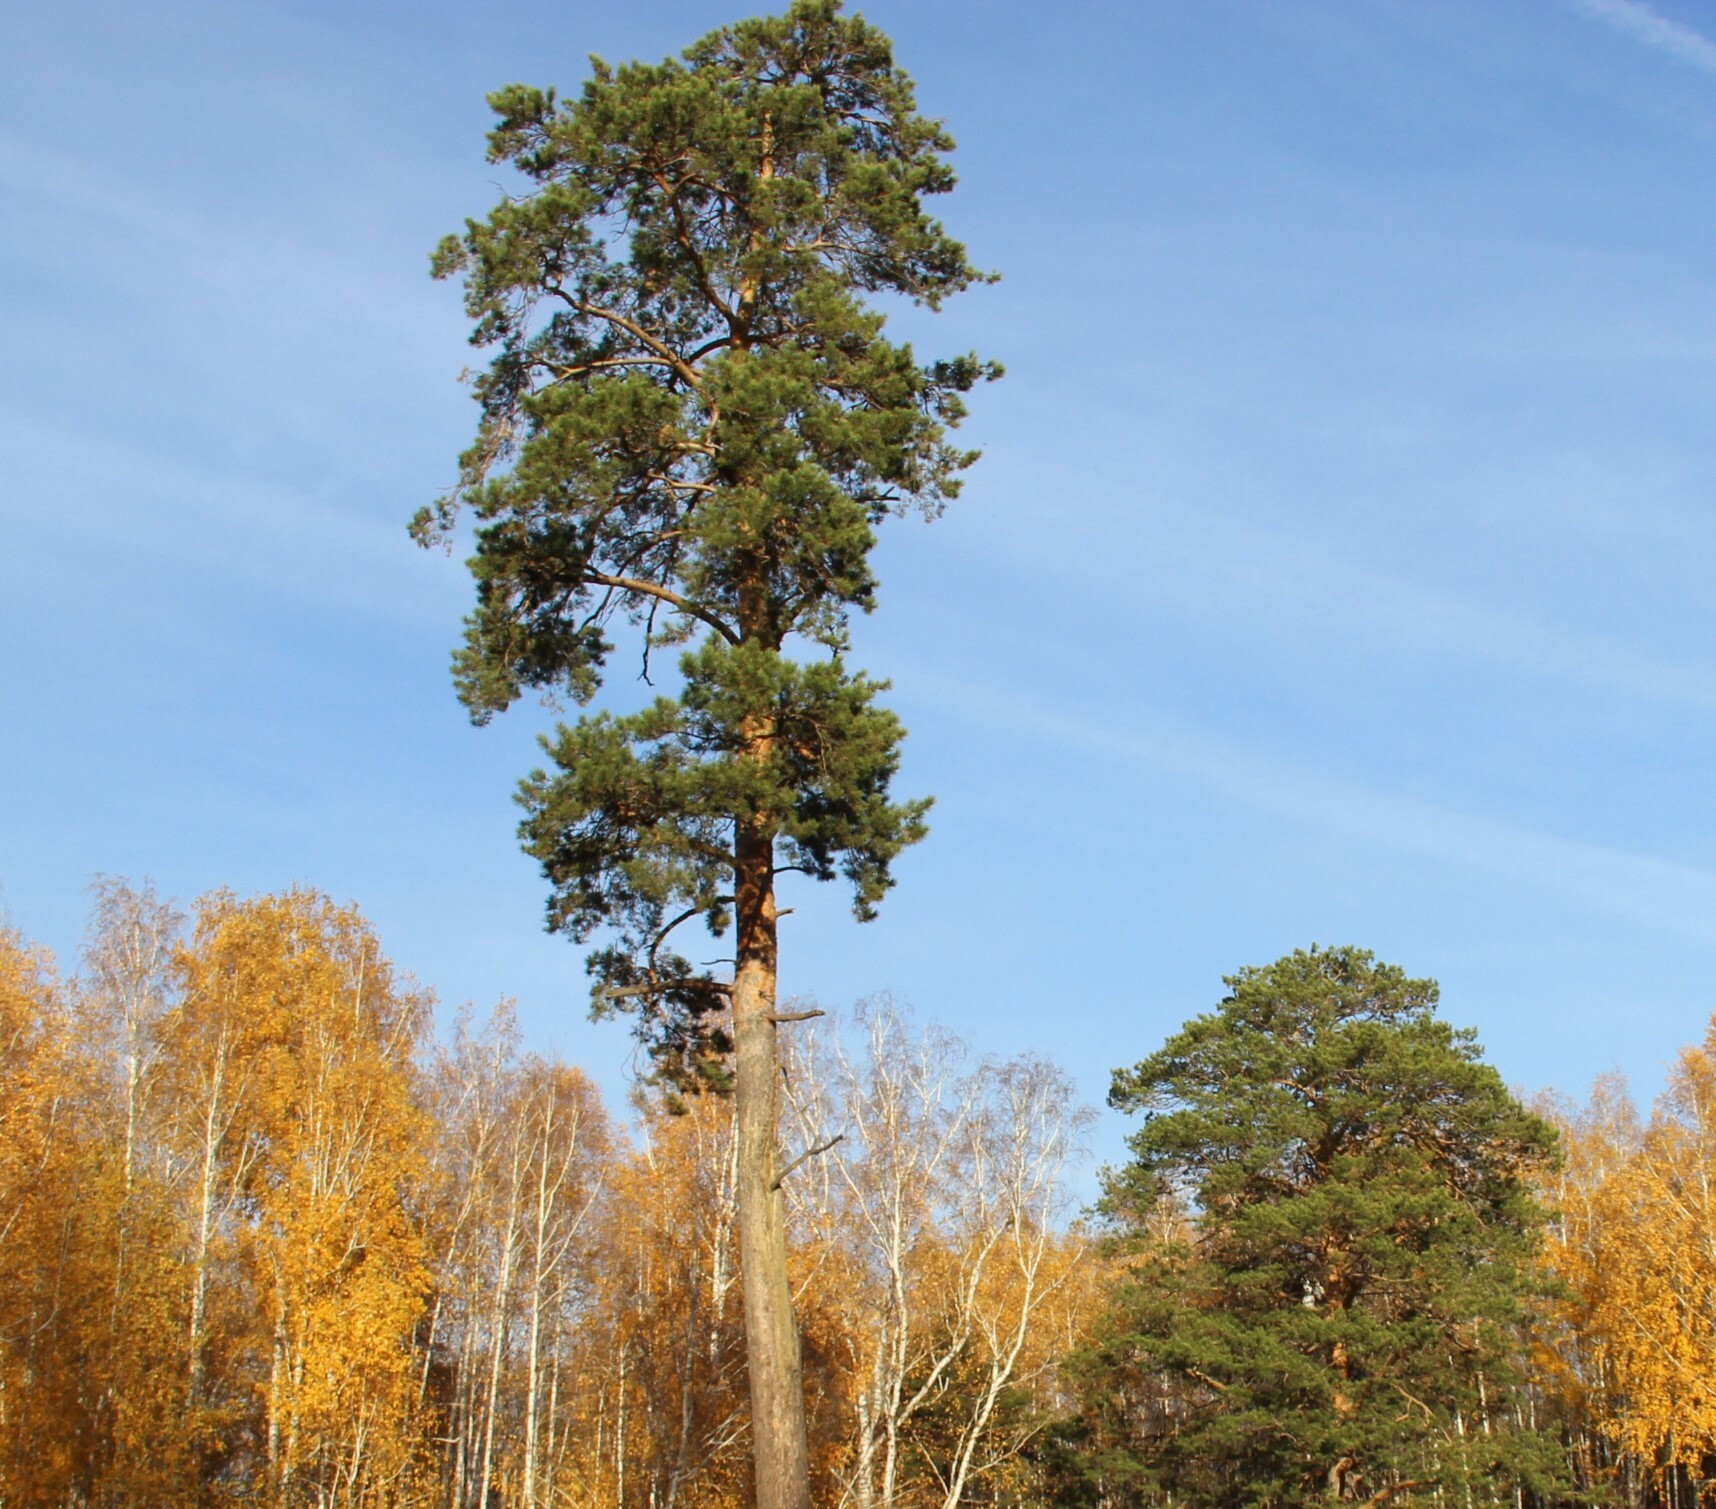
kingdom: Plantae
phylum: Tracheophyta
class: Pinopsida
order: Pinales
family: Pinaceae
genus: Pinus
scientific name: Pinus sylvestris
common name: Scots pine
